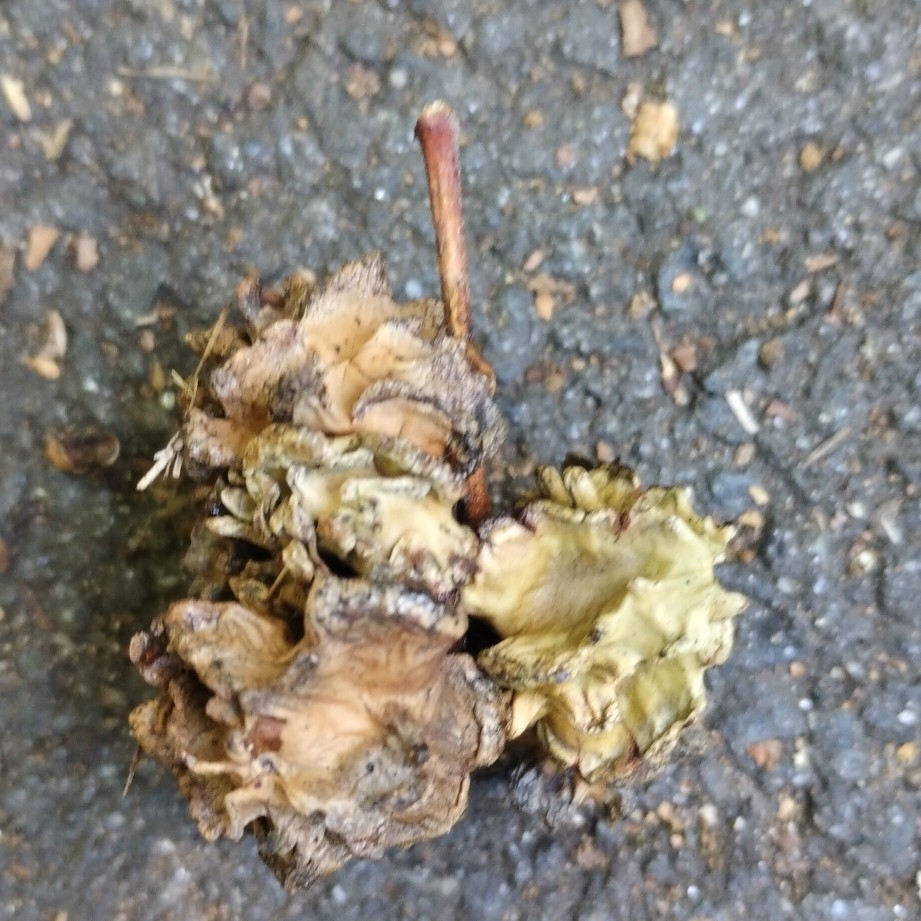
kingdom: Animalia
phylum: Arthropoda
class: Insecta
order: Hymenoptera
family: Cynipidae
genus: Andricus
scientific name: Andricus quercuscalicis
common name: Knopper gall
